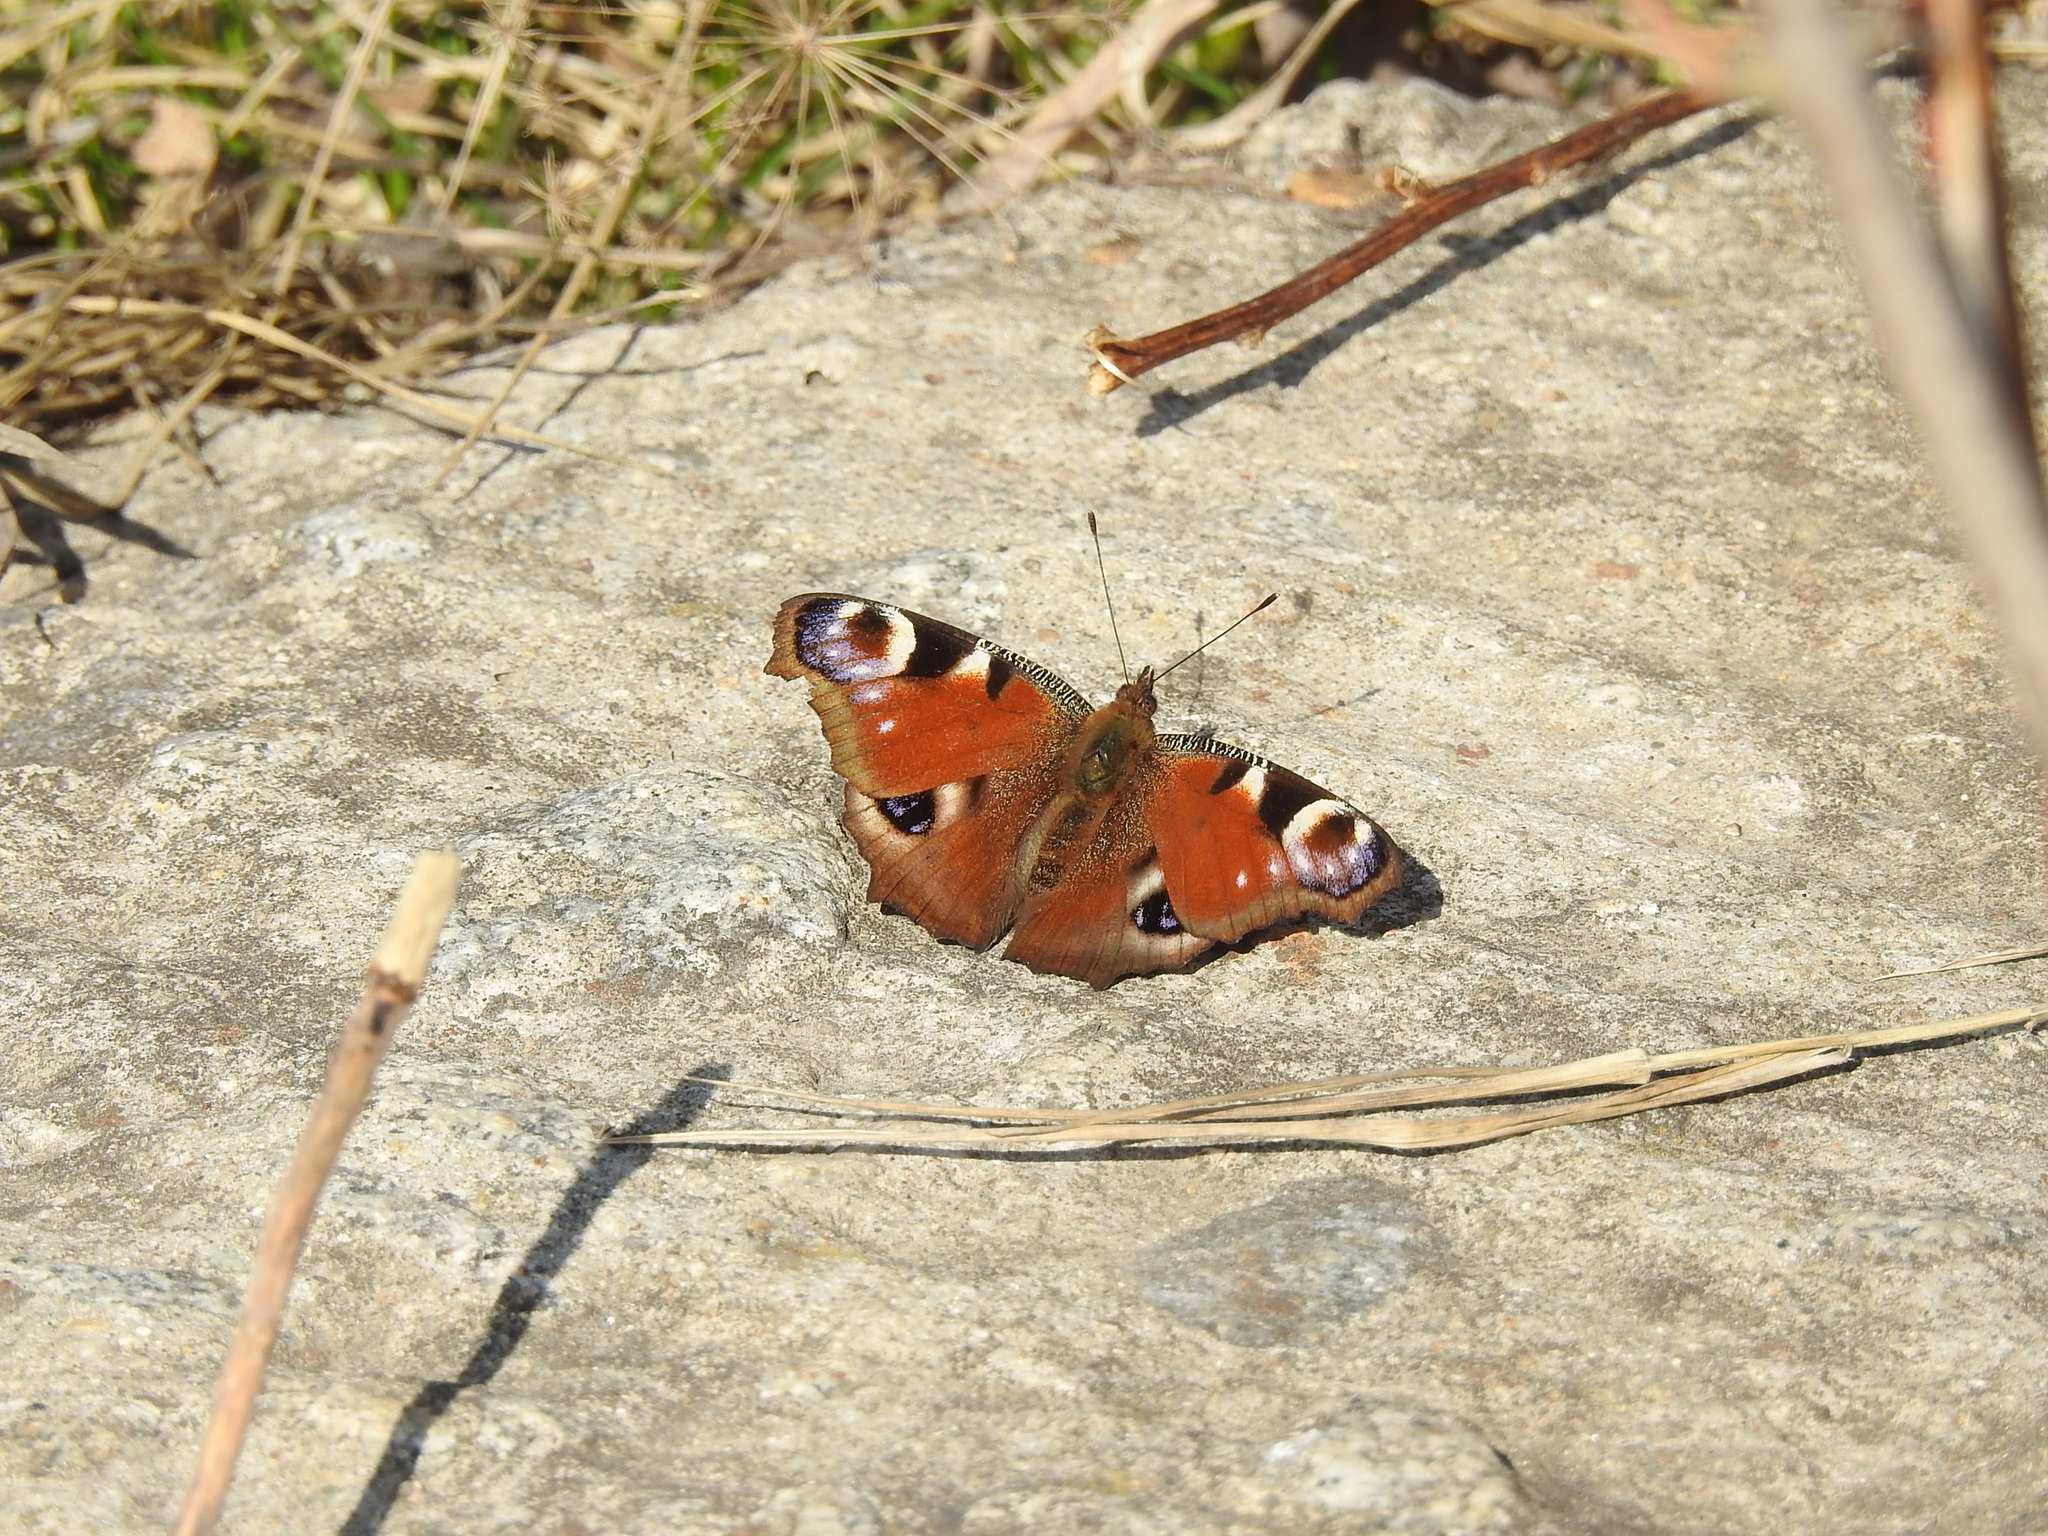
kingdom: Animalia
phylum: Arthropoda
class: Insecta
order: Lepidoptera
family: Nymphalidae
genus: Aglais
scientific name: Aglais io
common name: Peacock
